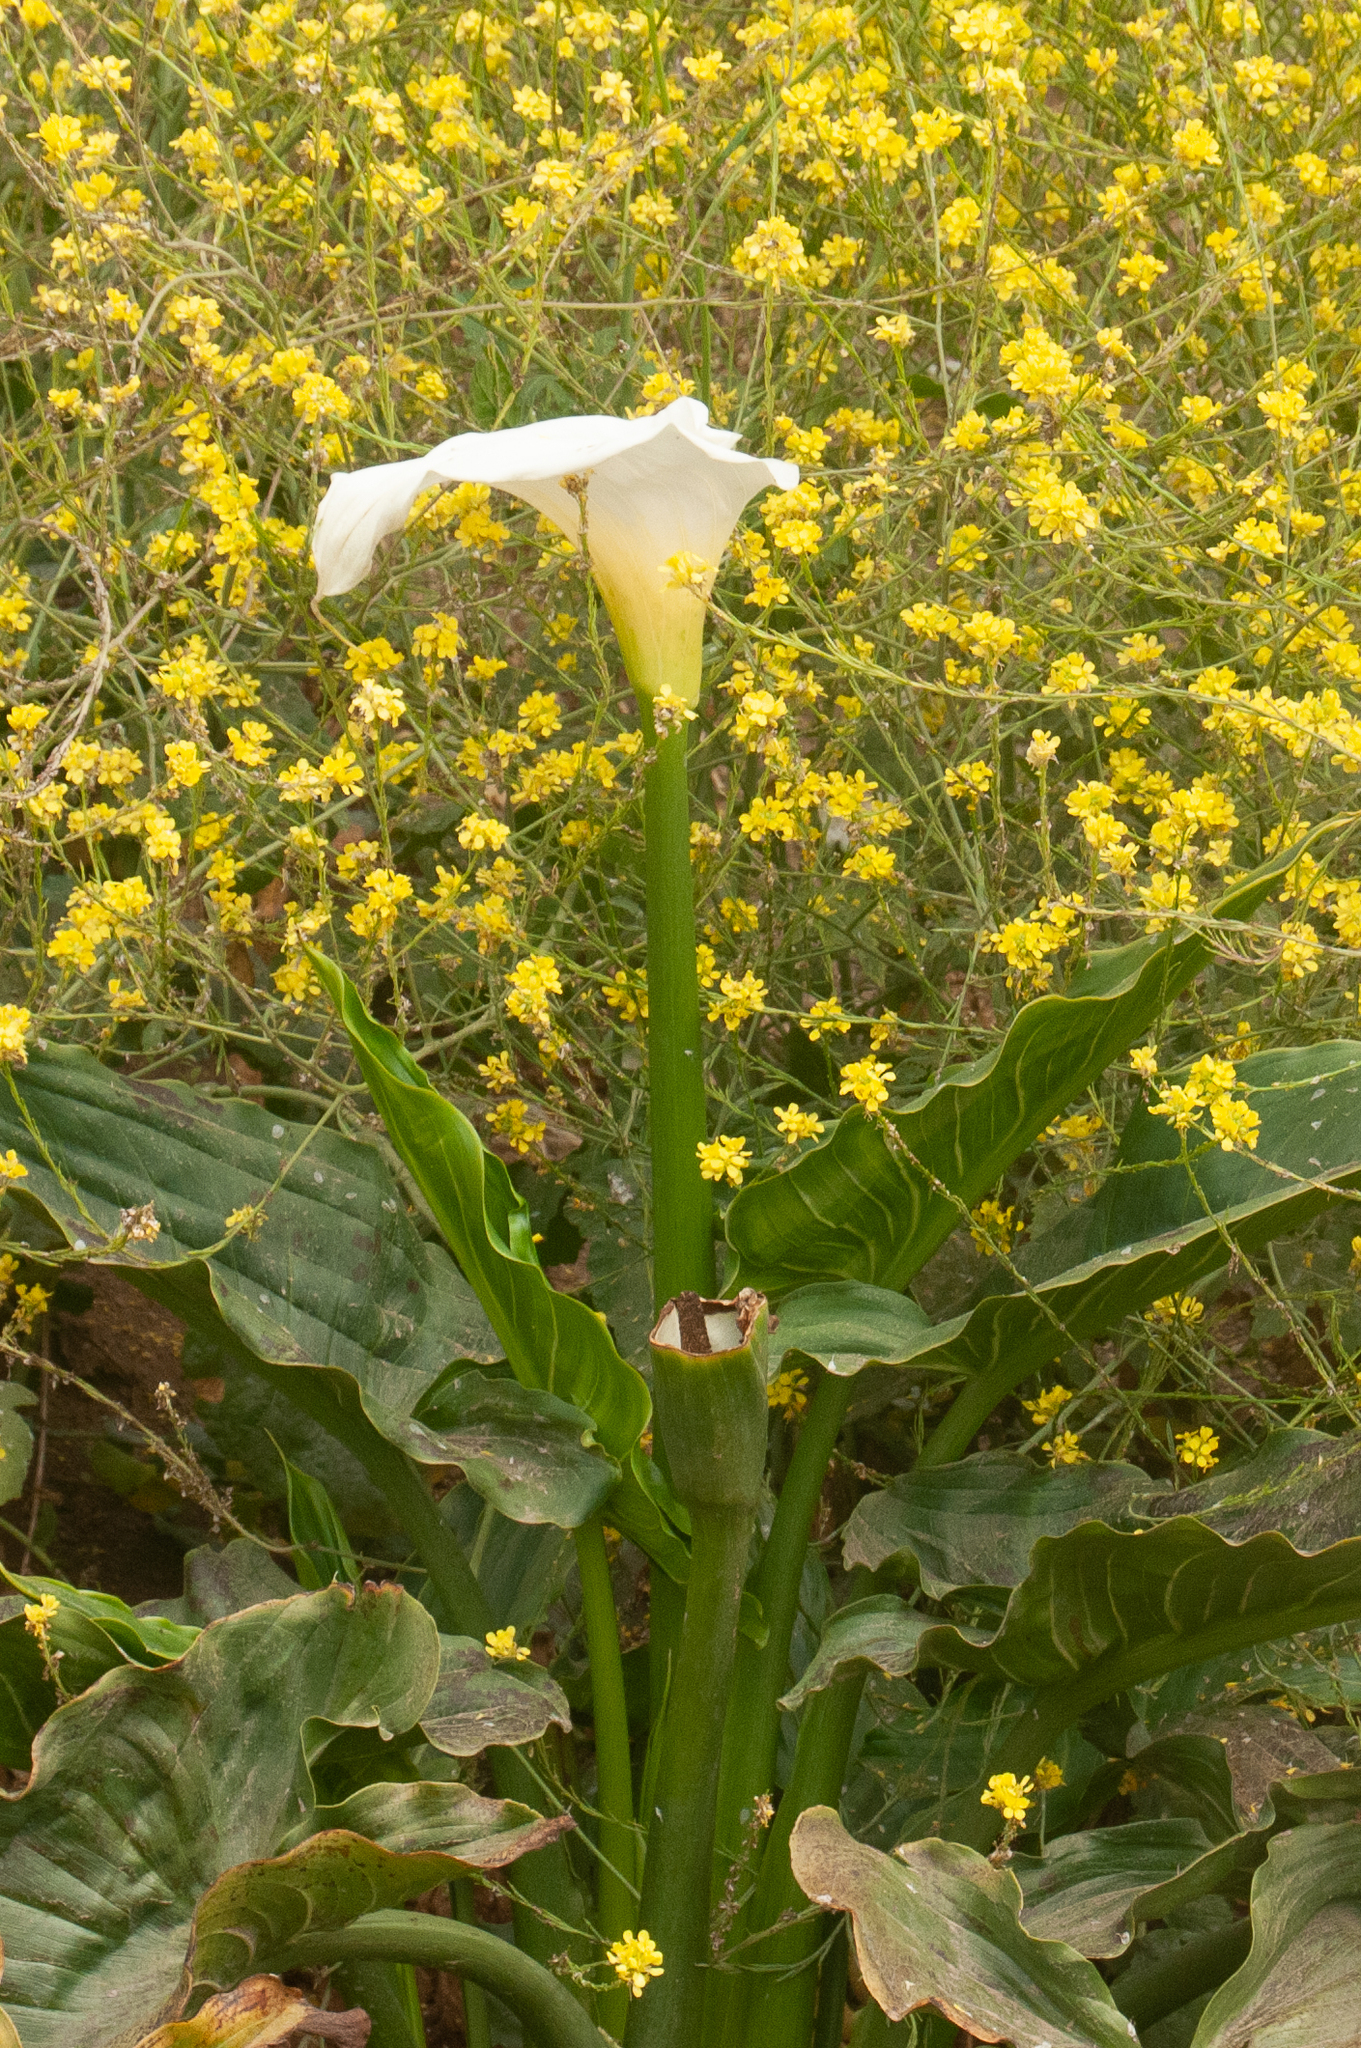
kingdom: Plantae
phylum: Tracheophyta
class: Liliopsida
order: Alismatales
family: Araceae
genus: Zantedeschia
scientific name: Zantedeschia aethiopica
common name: Altar-lily
